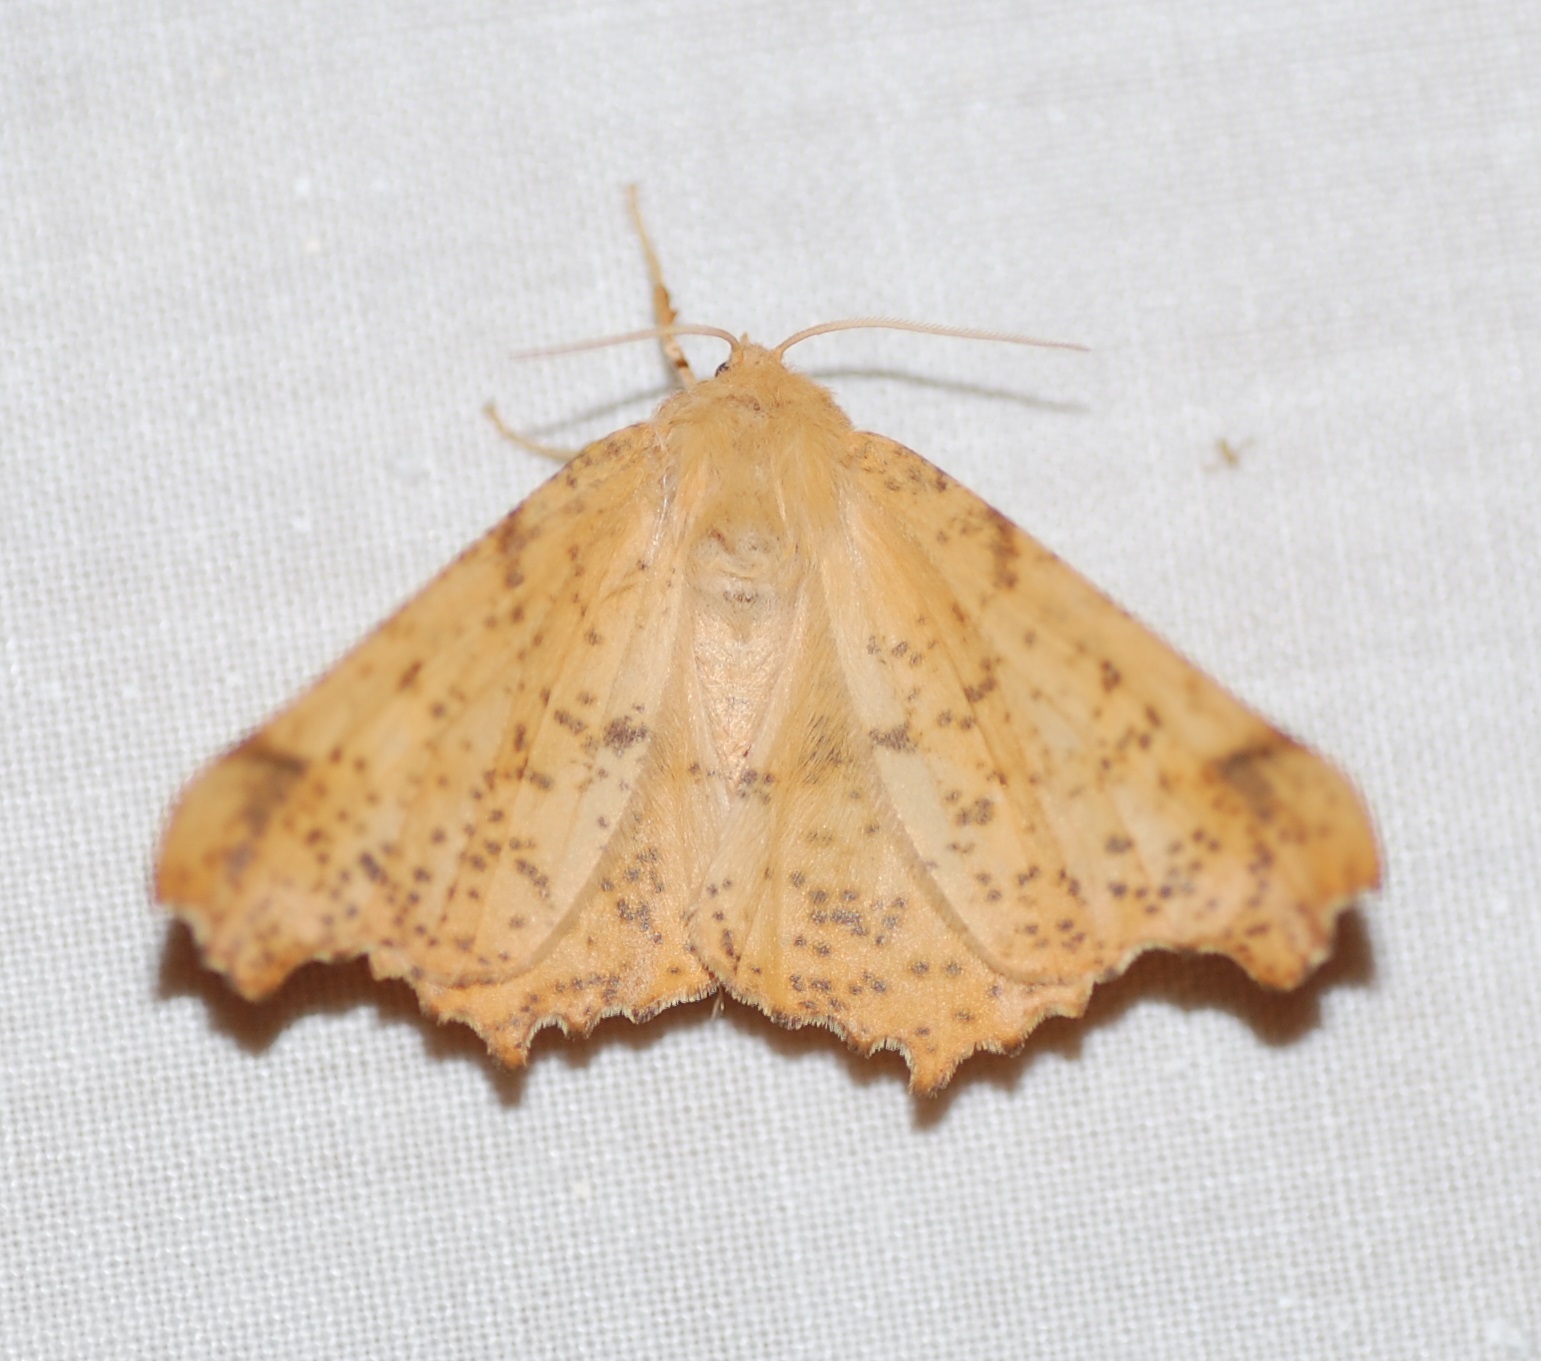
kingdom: Animalia
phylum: Arthropoda
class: Insecta
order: Lepidoptera
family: Geometridae
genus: Ennomos
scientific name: Ennomos magnaria
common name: Maple spanworm
